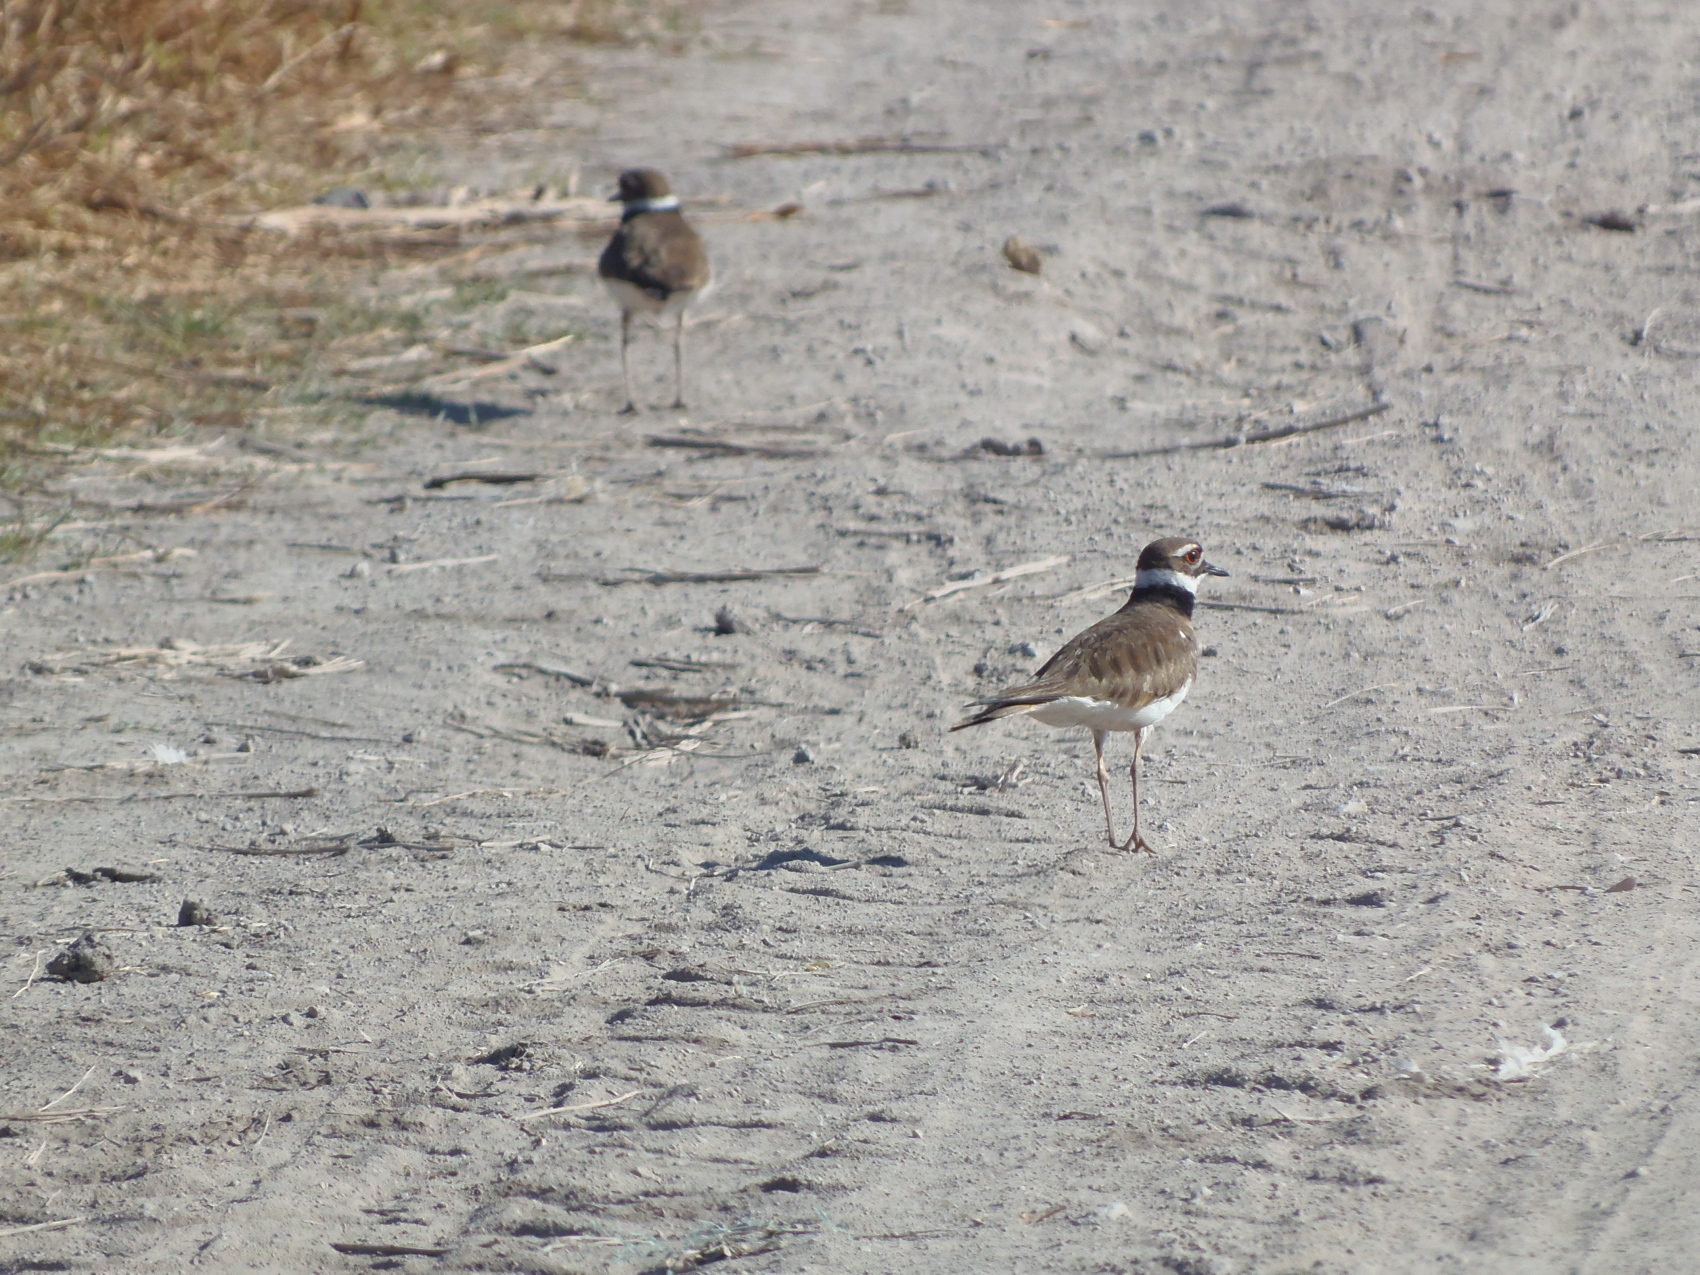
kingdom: Animalia
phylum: Chordata
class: Aves
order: Charadriiformes
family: Charadriidae
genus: Charadrius
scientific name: Charadrius vociferus
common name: Killdeer
